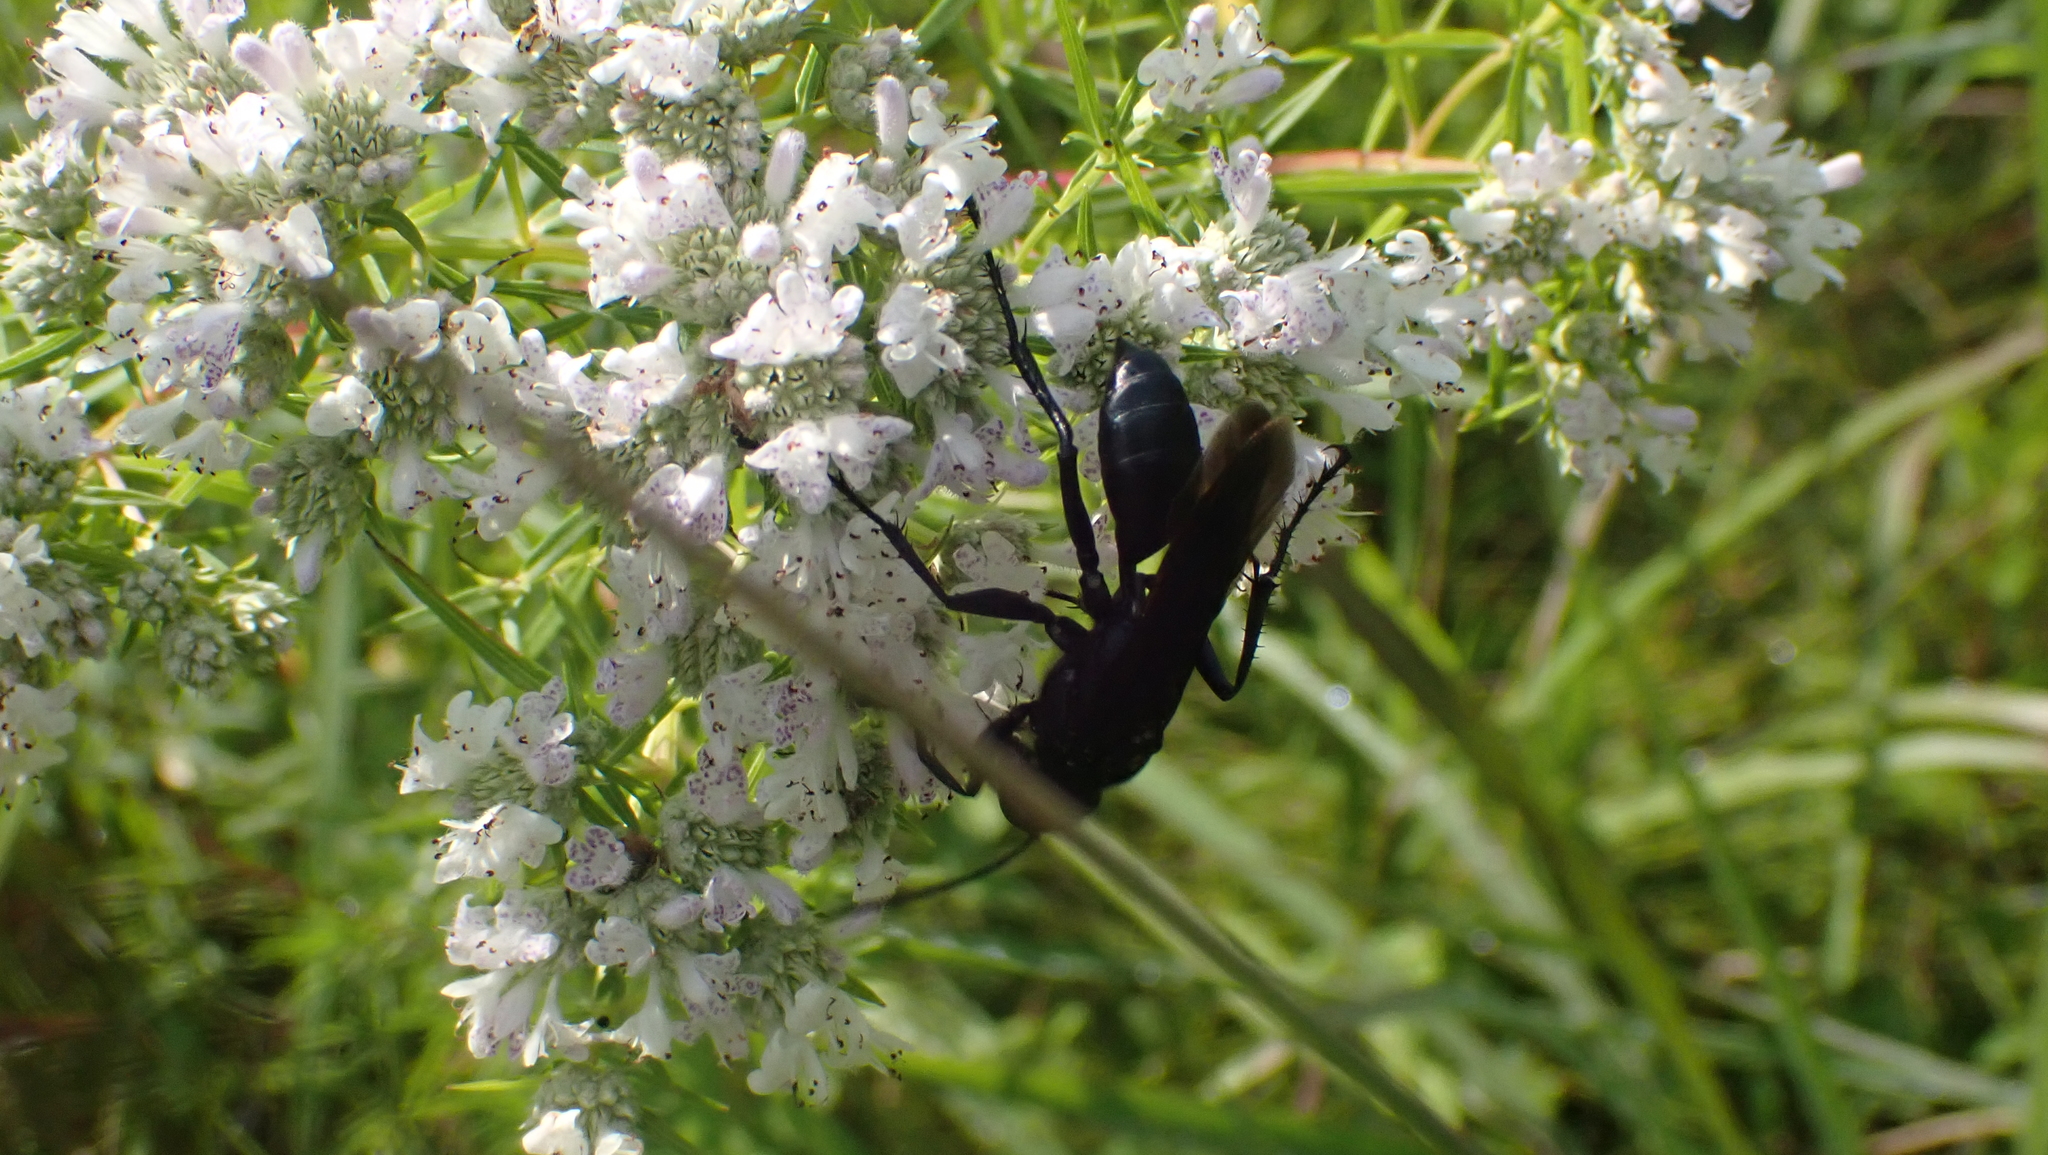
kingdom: Animalia
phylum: Arthropoda
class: Insecta
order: Hymenoptera
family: Sphecidae
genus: Sphex
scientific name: Sphex pensylvanicus
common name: Great black digger wasp
